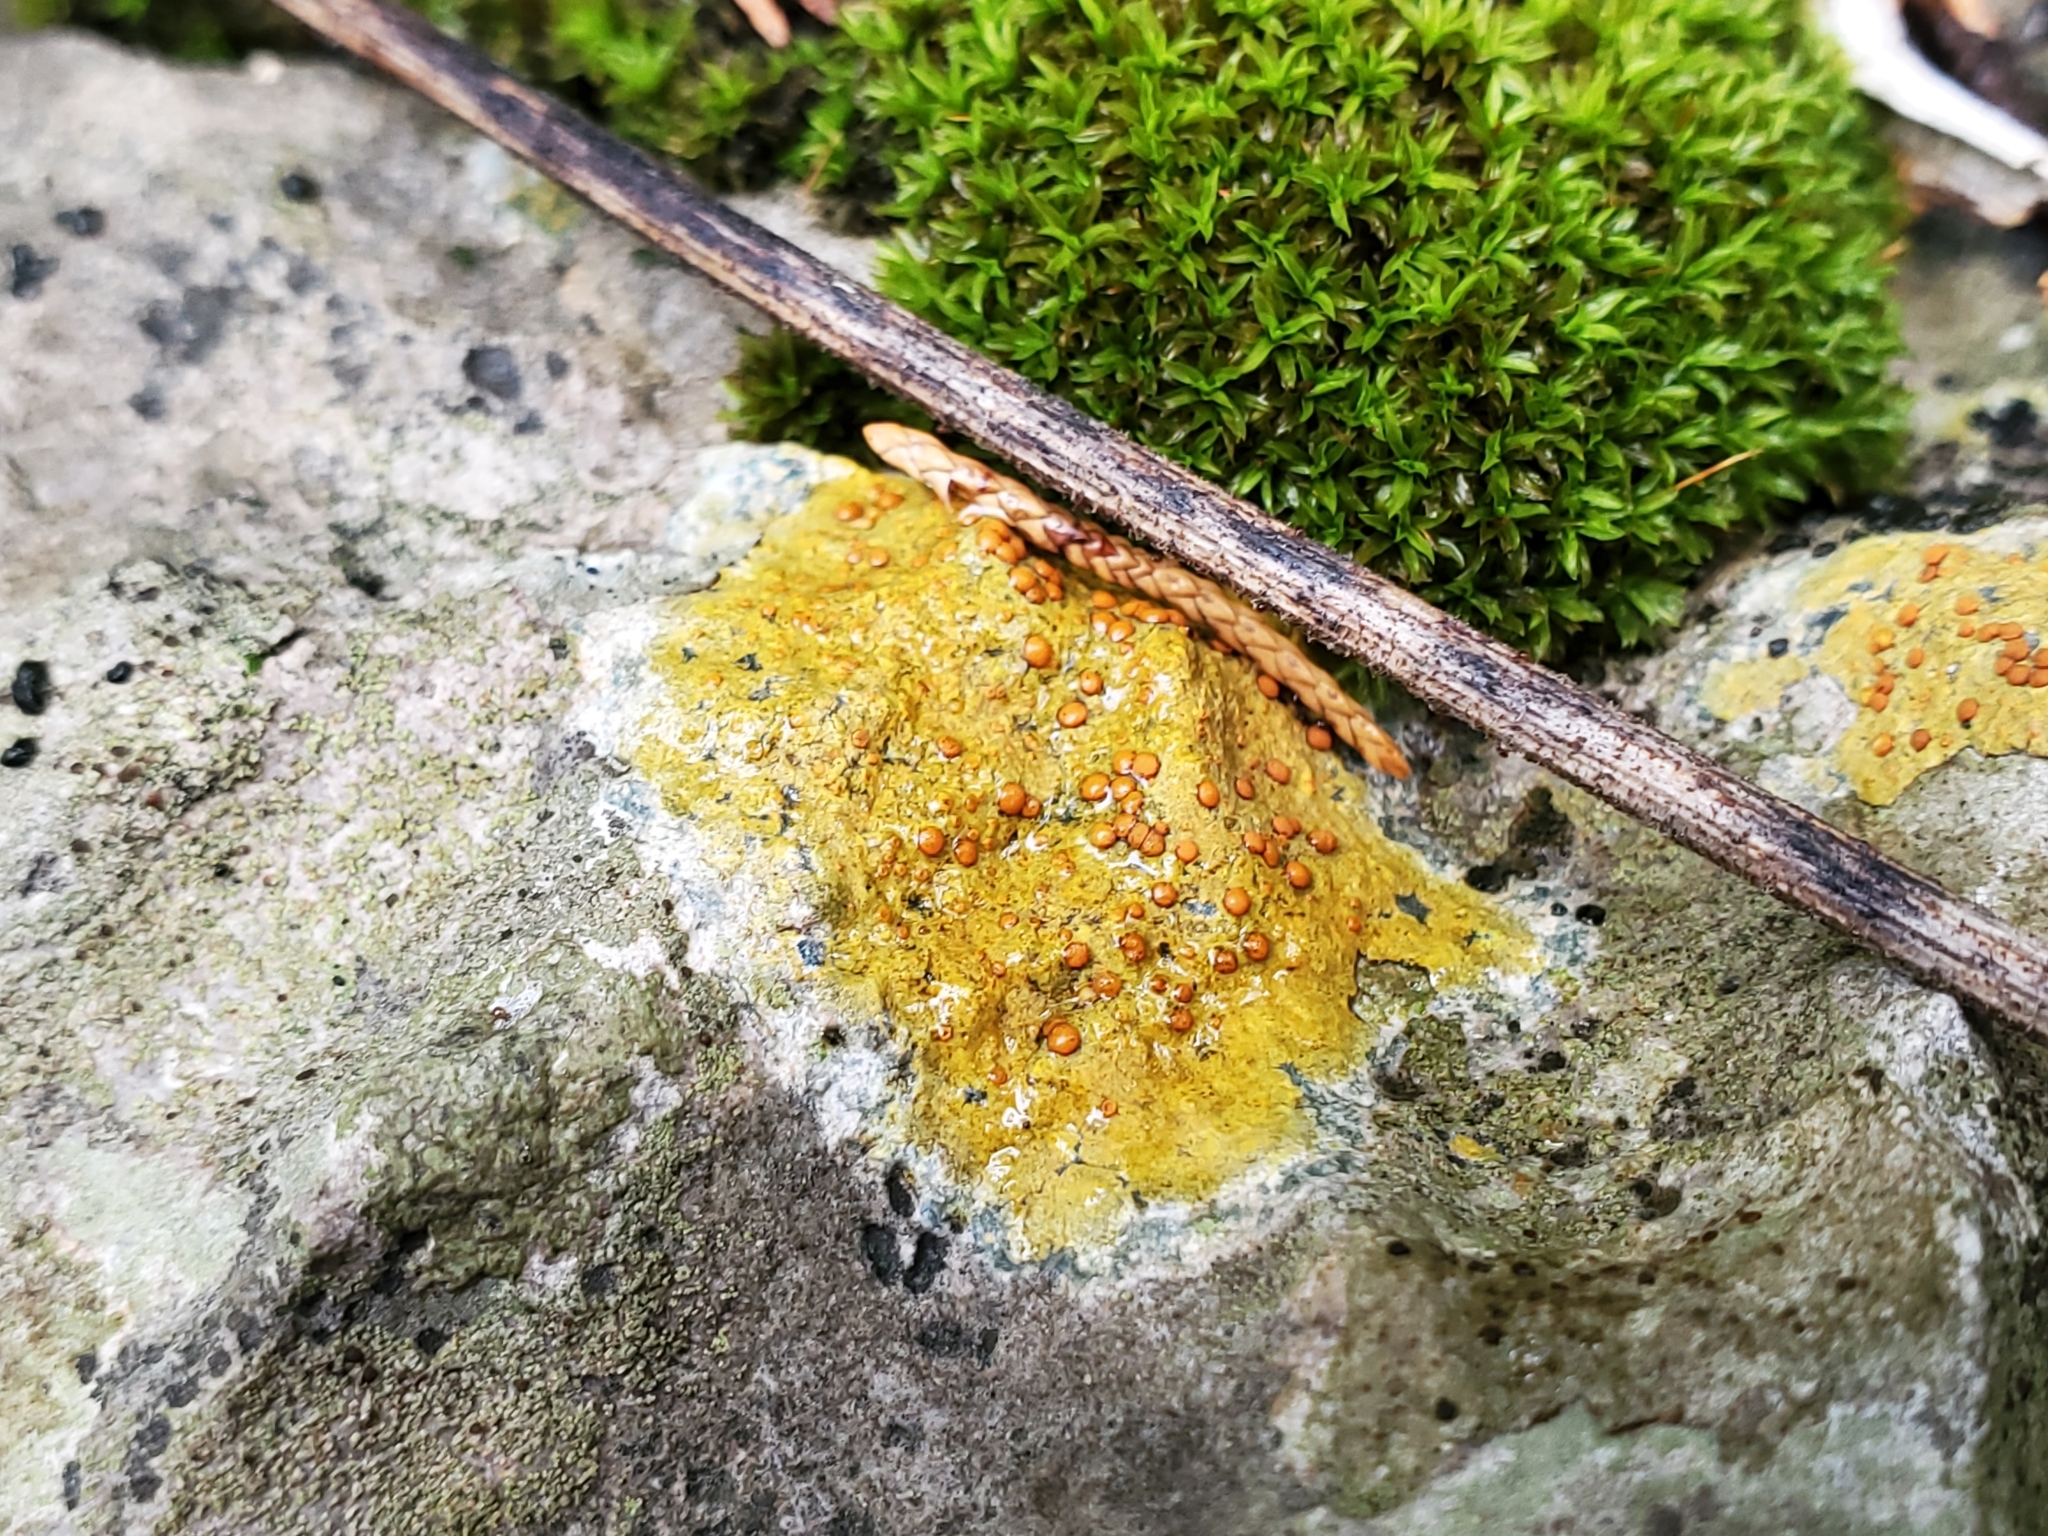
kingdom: Fungi
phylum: Ascomycota
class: Lecanoromycetes
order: Teloschistales
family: Teloschistaceae
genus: Gyalolechia
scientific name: Gyalolechia flavovirescens
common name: Sulphur firedot
